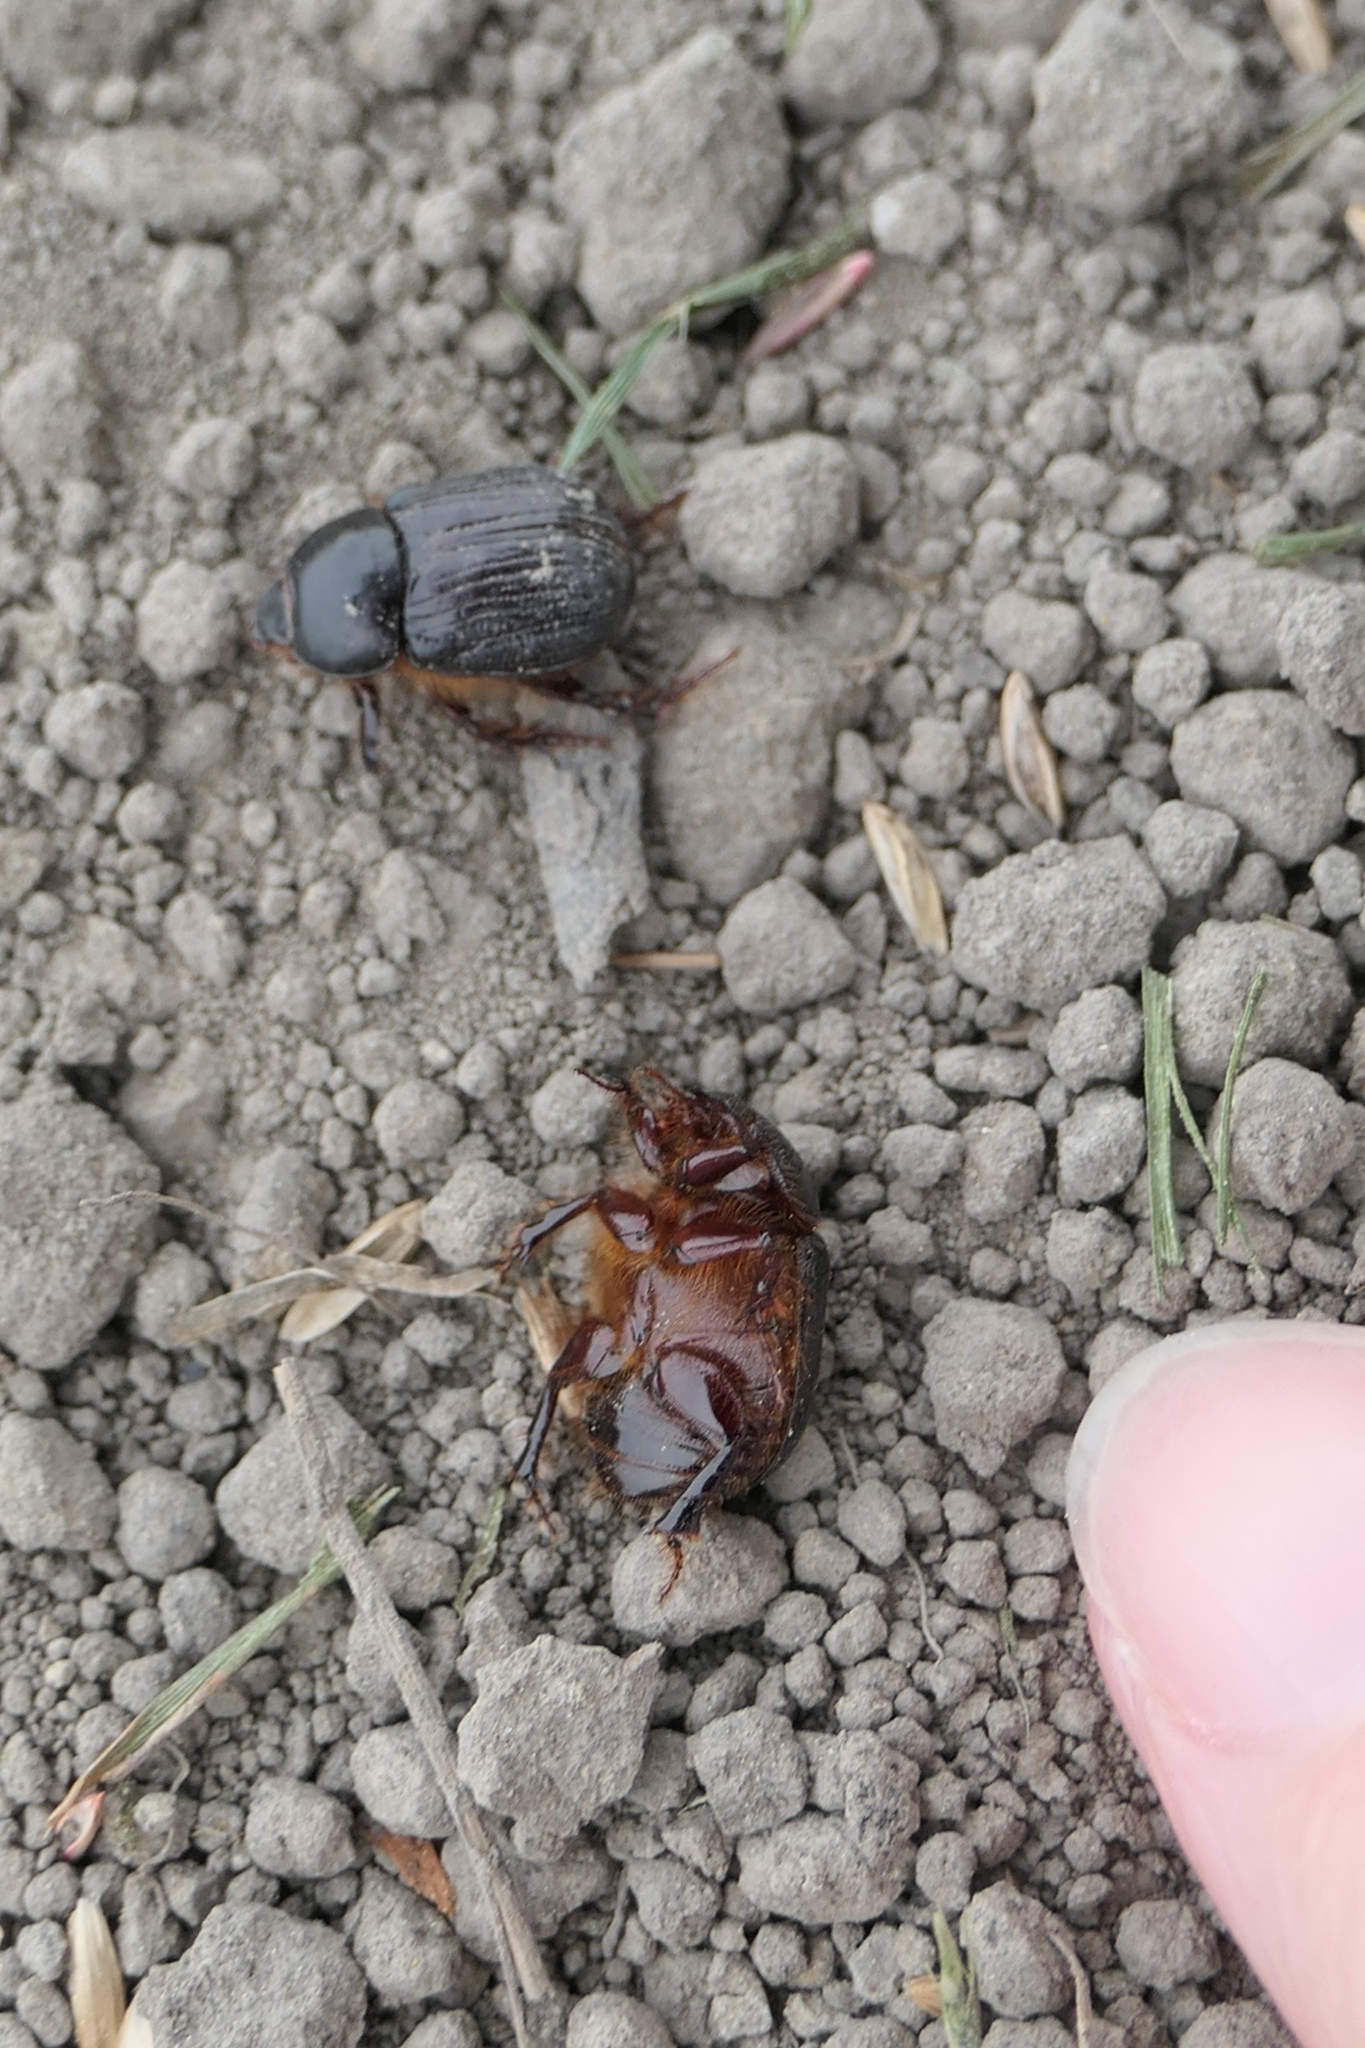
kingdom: Animalia
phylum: Arthropoda
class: Insecta
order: Coleoptera
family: Scarabaeidae
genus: Adoryphorus
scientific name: Adoryphorus couloni
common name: Redheaded pasture cockchafer
